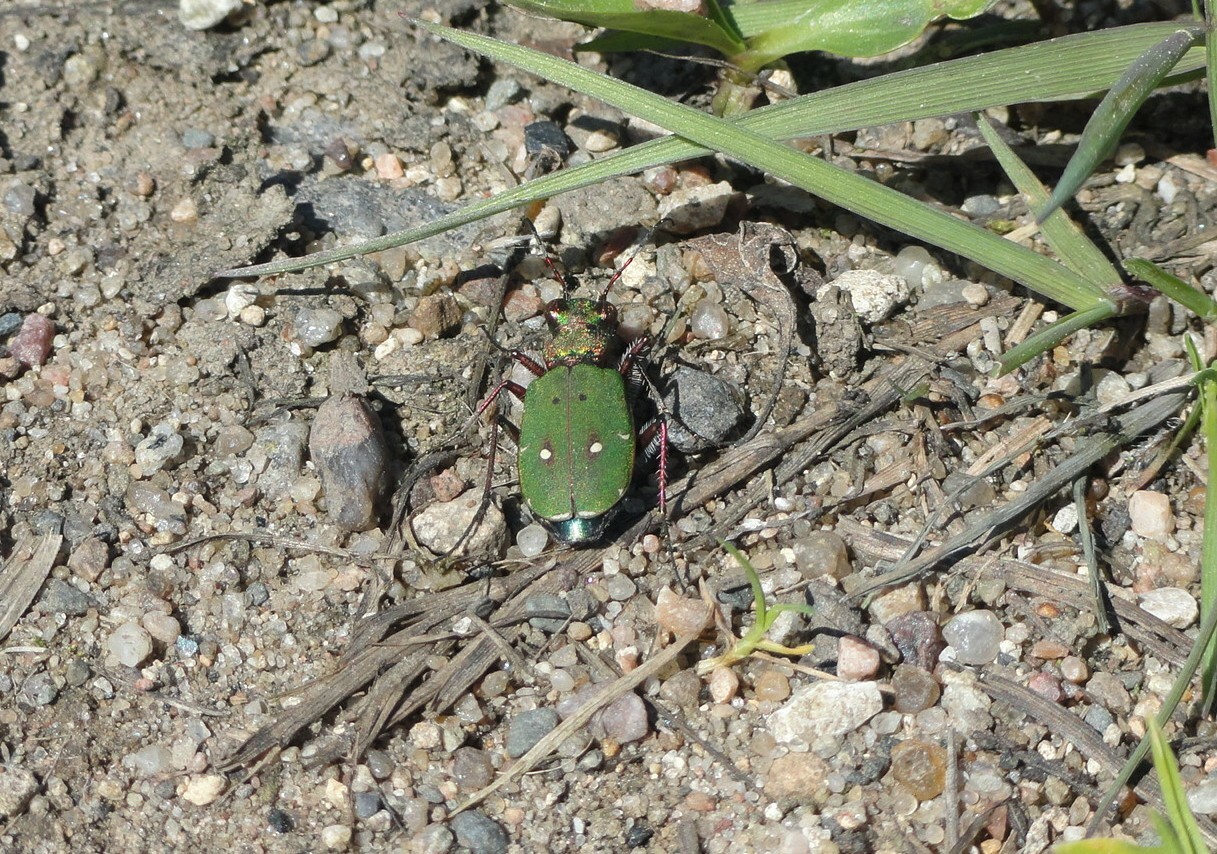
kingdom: Animalia
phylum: Arthropoda
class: Insecta
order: Coleoptera
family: Carabidae
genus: Cicindela
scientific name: Cicindela campestris
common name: Common tiger beetle
